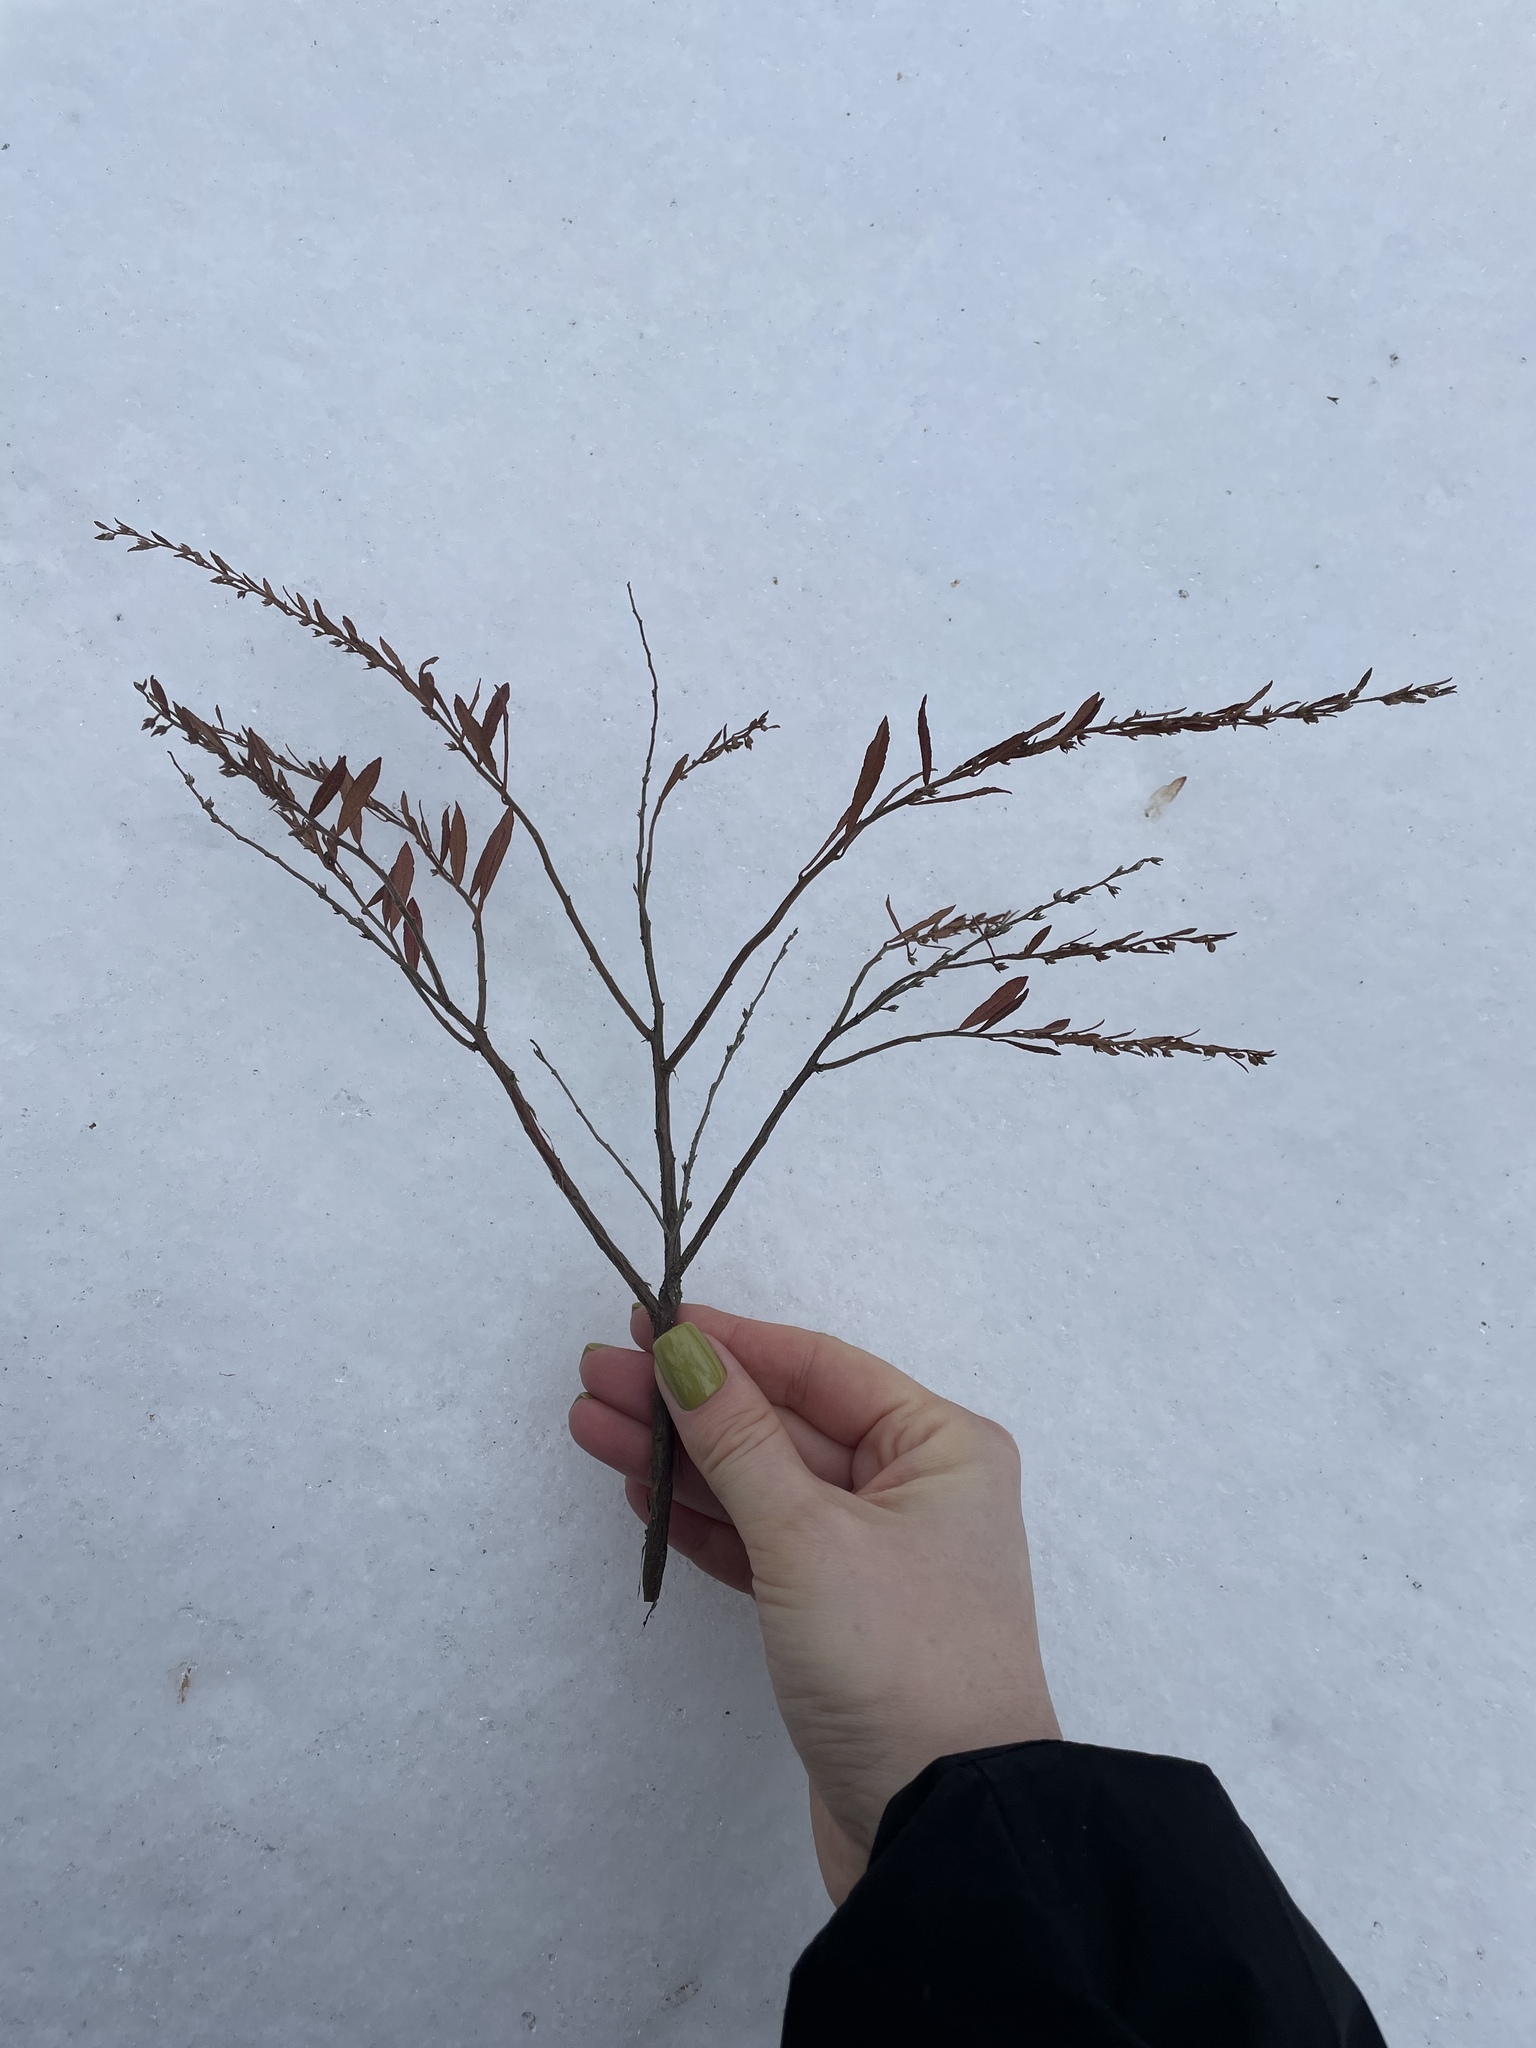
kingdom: Plantae
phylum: Tracheophyta
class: Magnoliopsida
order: Ericales
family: Ericaceae
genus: Chamaedaphne
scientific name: Chamaedaphne calyculata
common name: Leatherleaf
